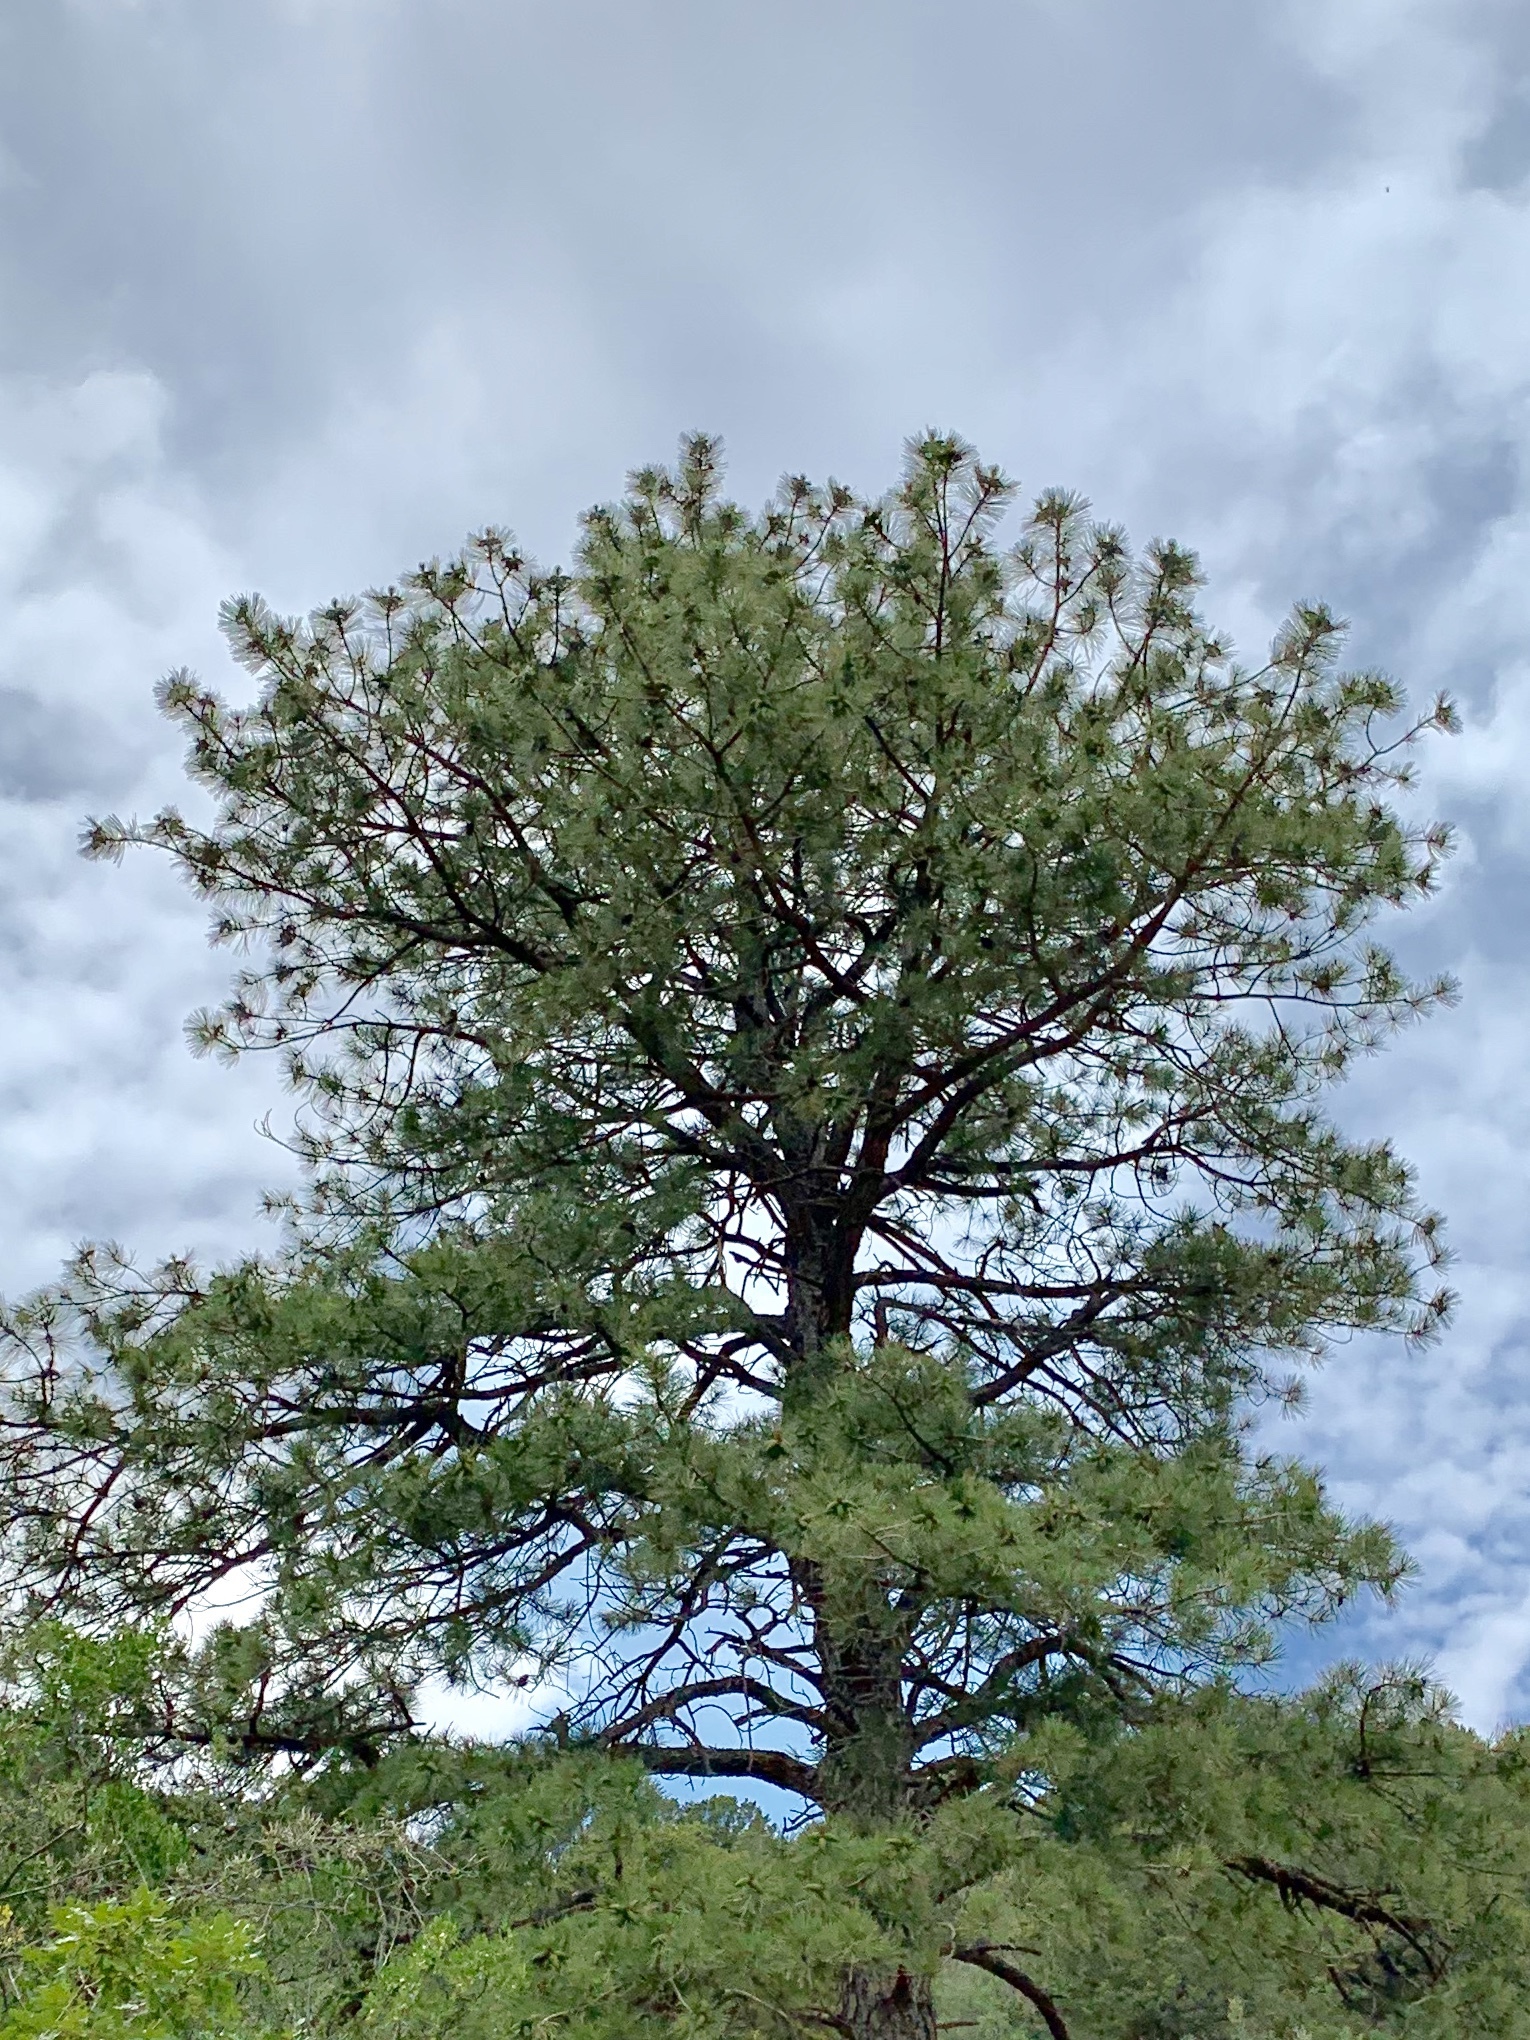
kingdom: Plantae
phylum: Tracheophyta
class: Pinopsida
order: Pinales
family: Pinaceae
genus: Pinus
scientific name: Pinus ponderosa
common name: Western yellow-pine
